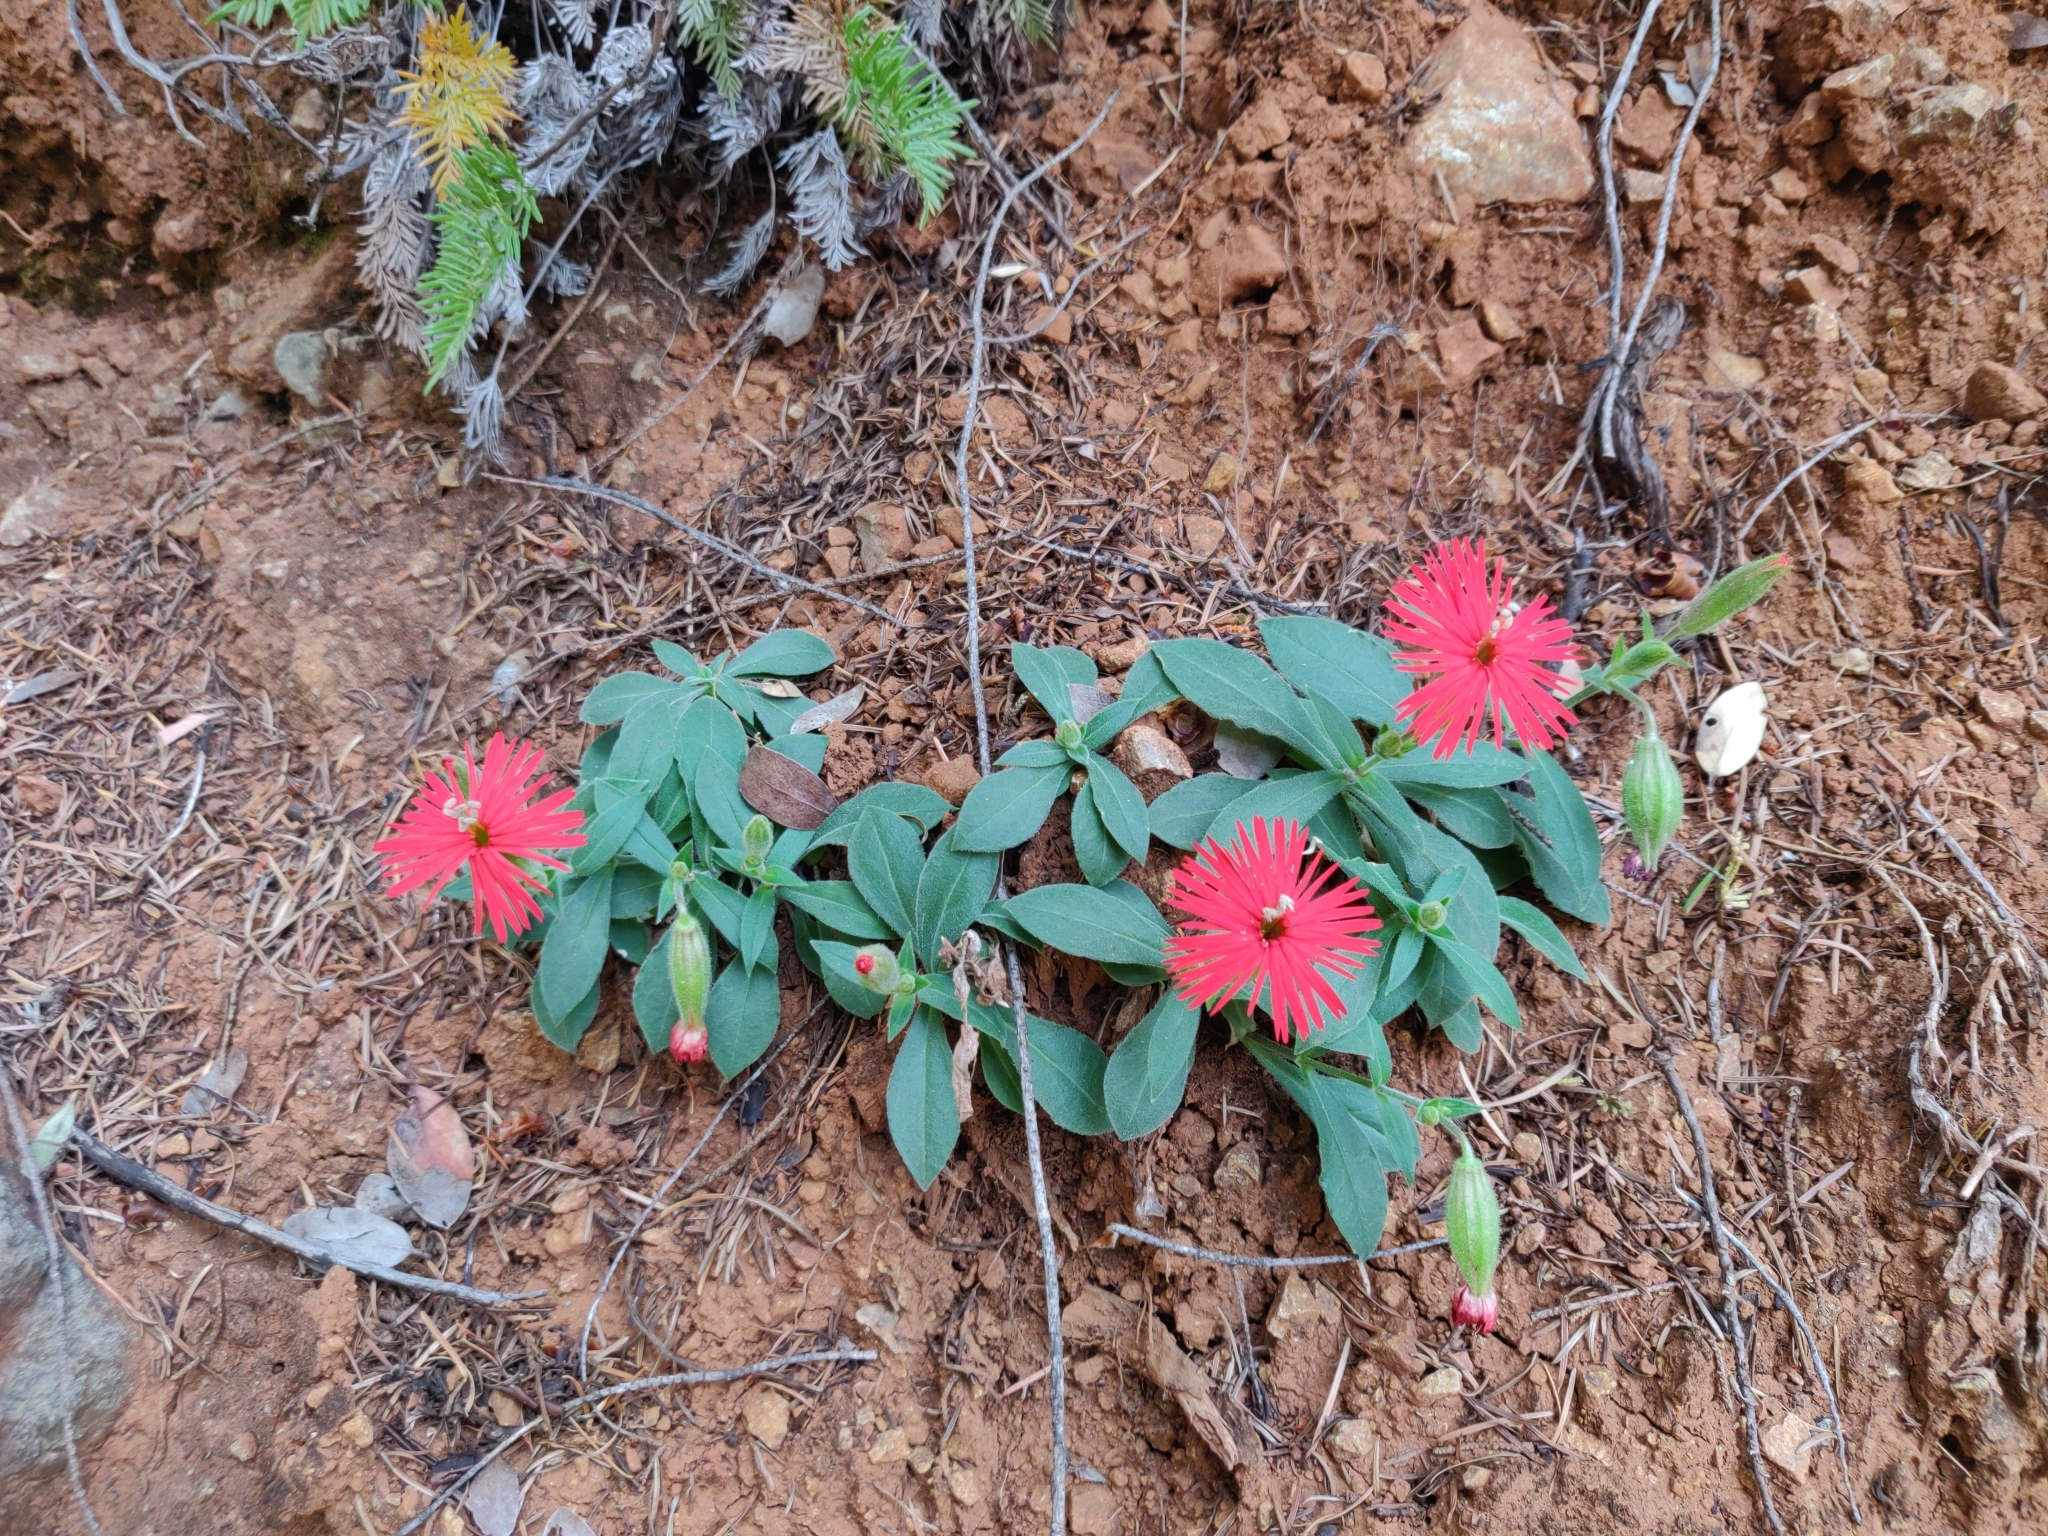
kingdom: Plantae
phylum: Tracheophyta
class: Magnoliopsida
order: Caryophyllales
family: Caryophyllaceae
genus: Silene
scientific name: Silene laciniata
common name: Indian-pink
